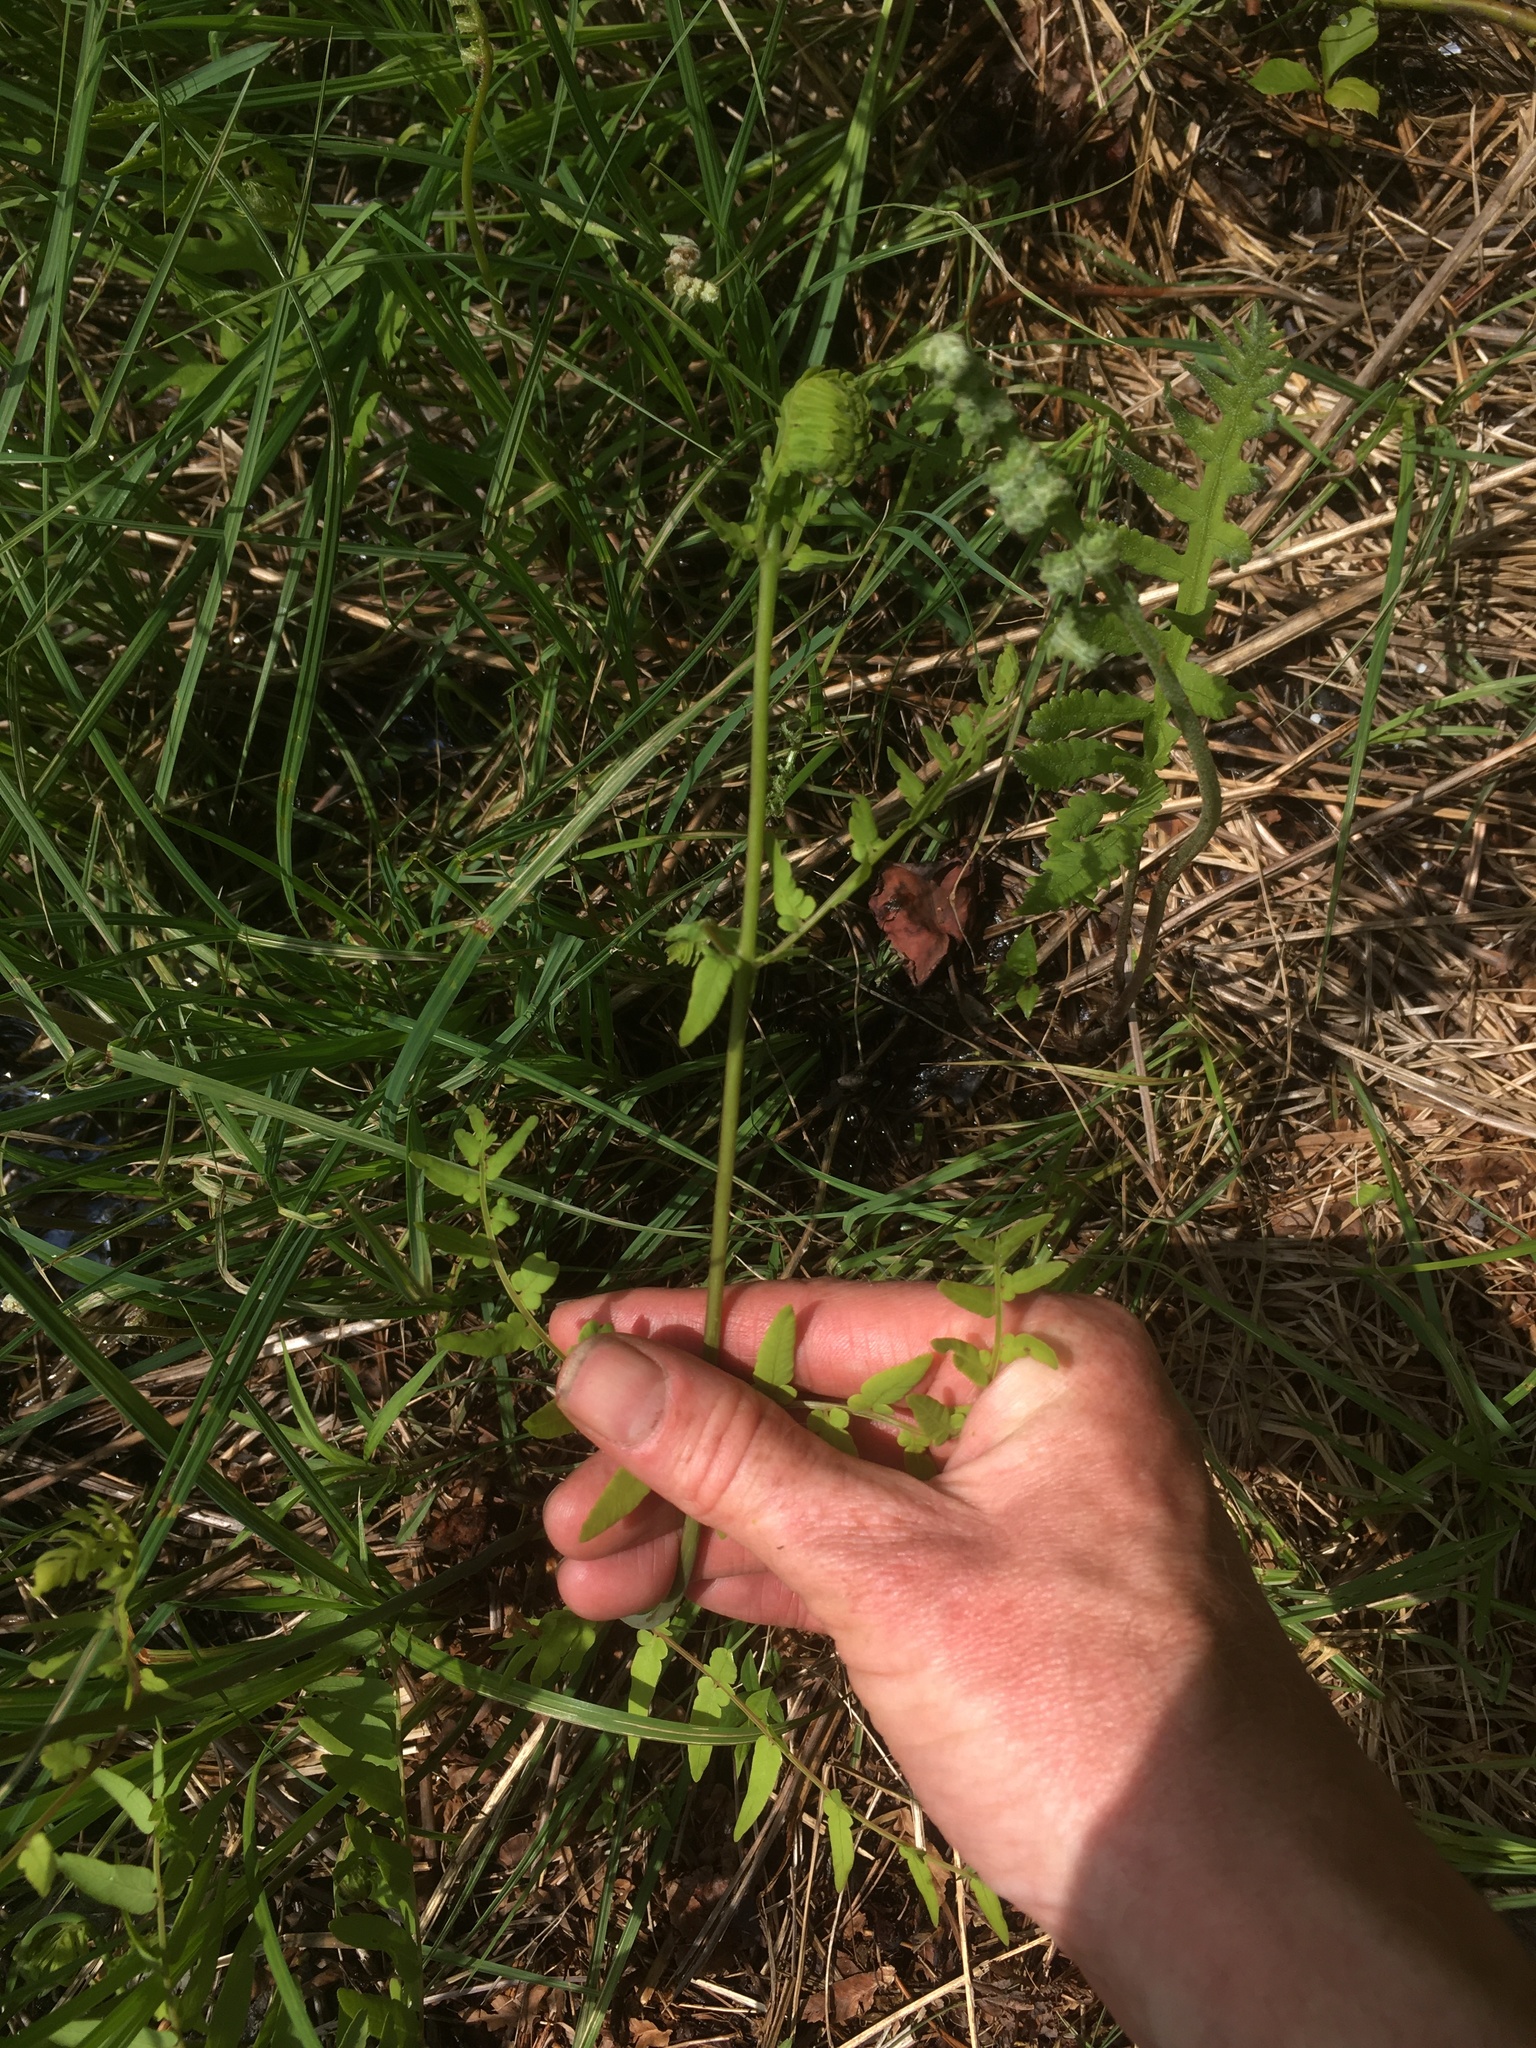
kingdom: Plantae
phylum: Tracheophyta
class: Polypodiopsida
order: Osmundales
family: Osmundaceae
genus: Osmunda
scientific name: Osmunda spectabilis
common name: American royal fern
